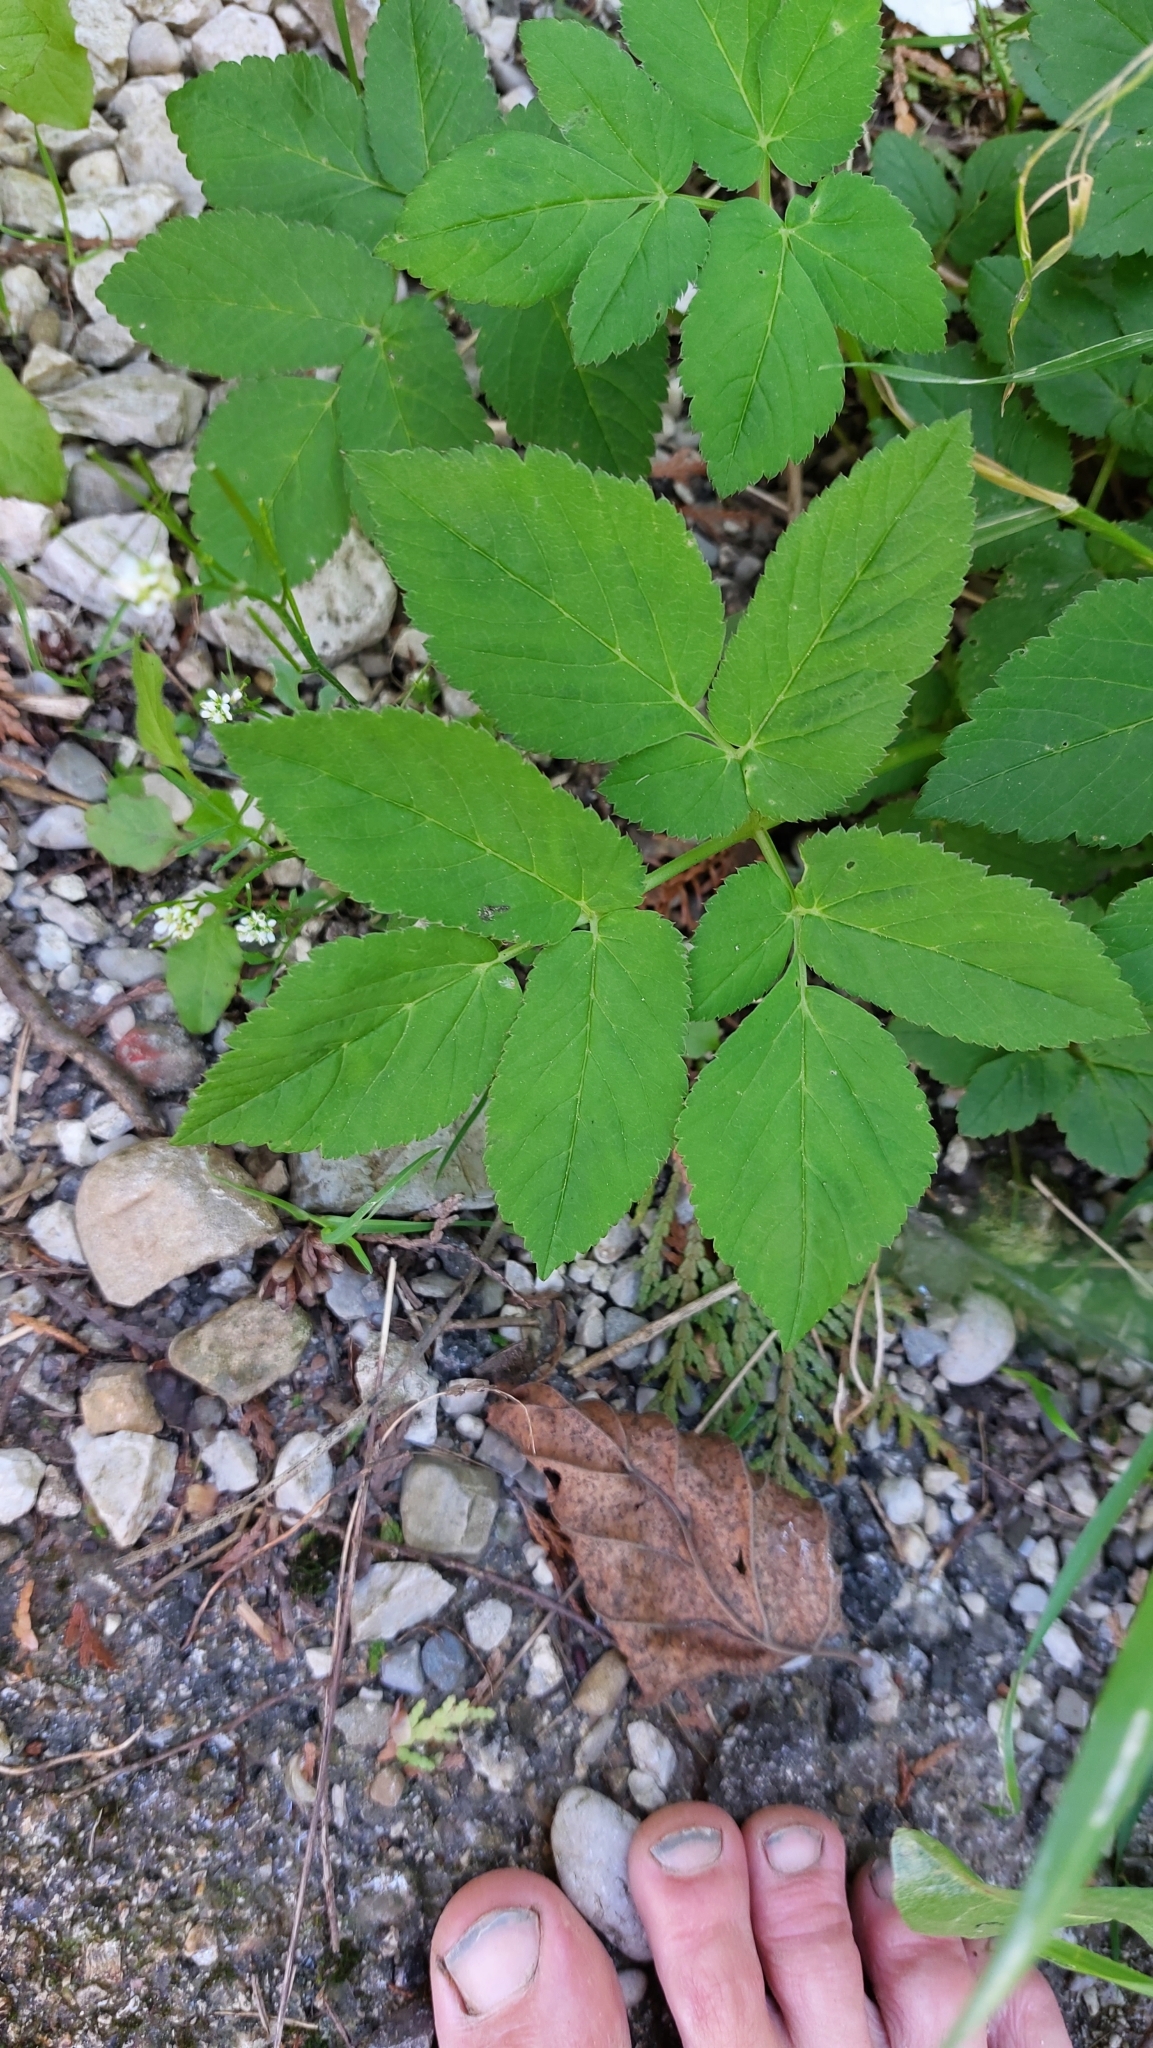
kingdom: Plantae
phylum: Tracheophyta
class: Magnoliopsida
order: Apiales
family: Apiaceae
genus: Aegopodium
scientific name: Aegopodium podagraria
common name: Ground-elder
